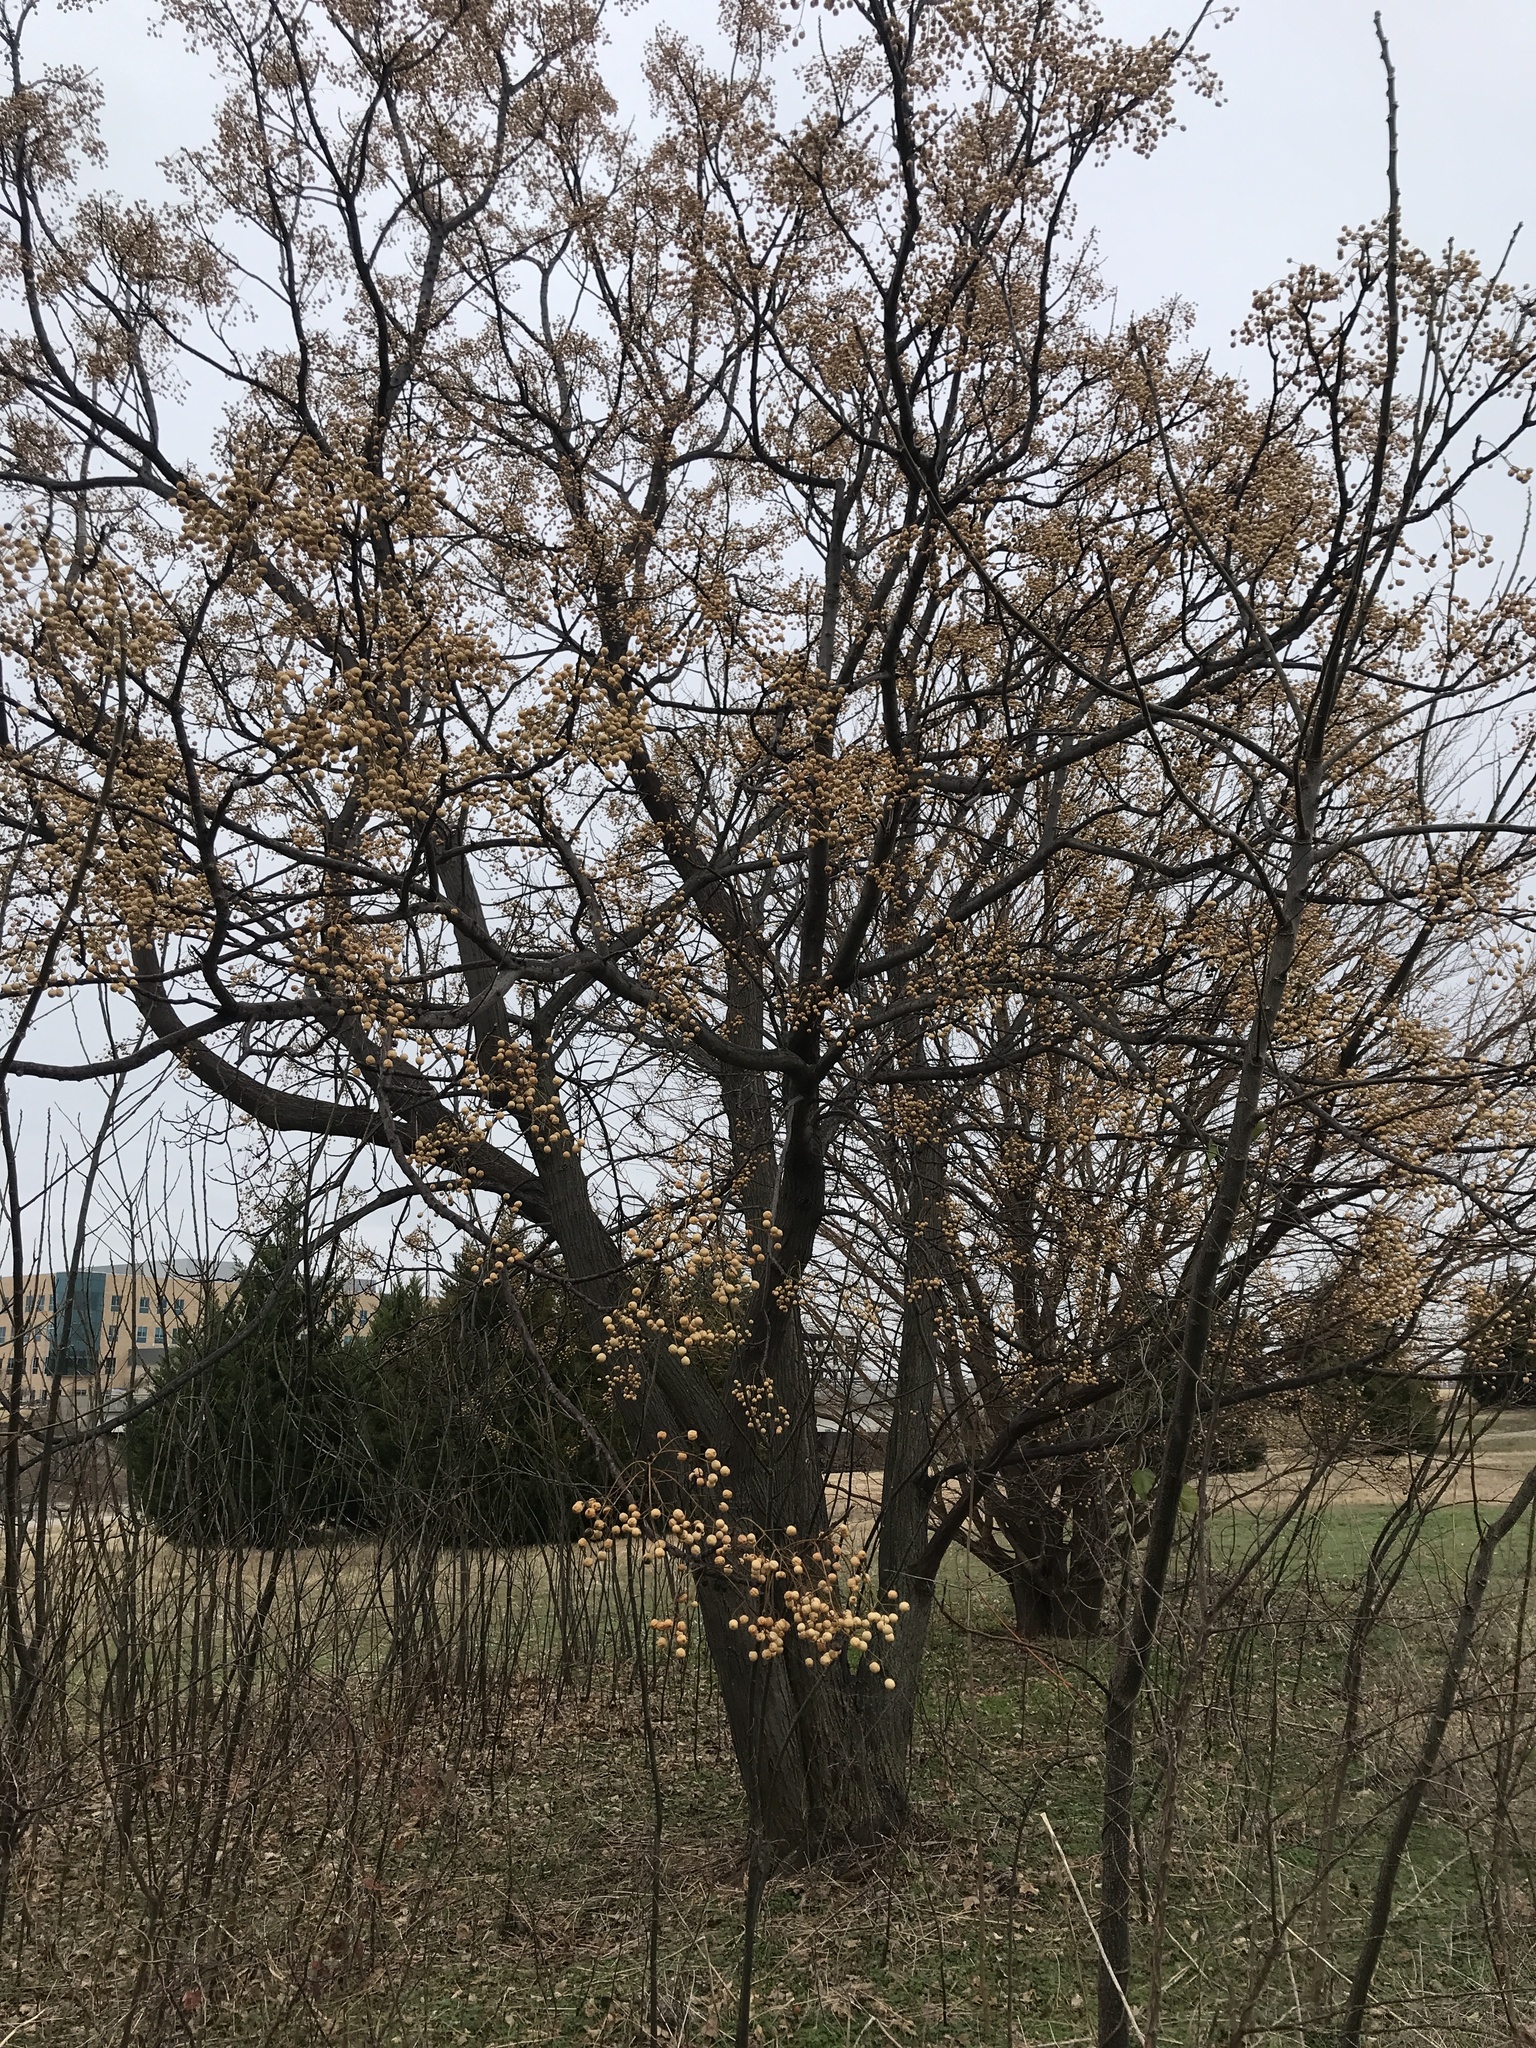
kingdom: Plantae
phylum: Tracheophyta
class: Magnoliopsida
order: Sapindales
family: Meliaceae
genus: Melia
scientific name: Melia azedarach
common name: Chinaberrytree
